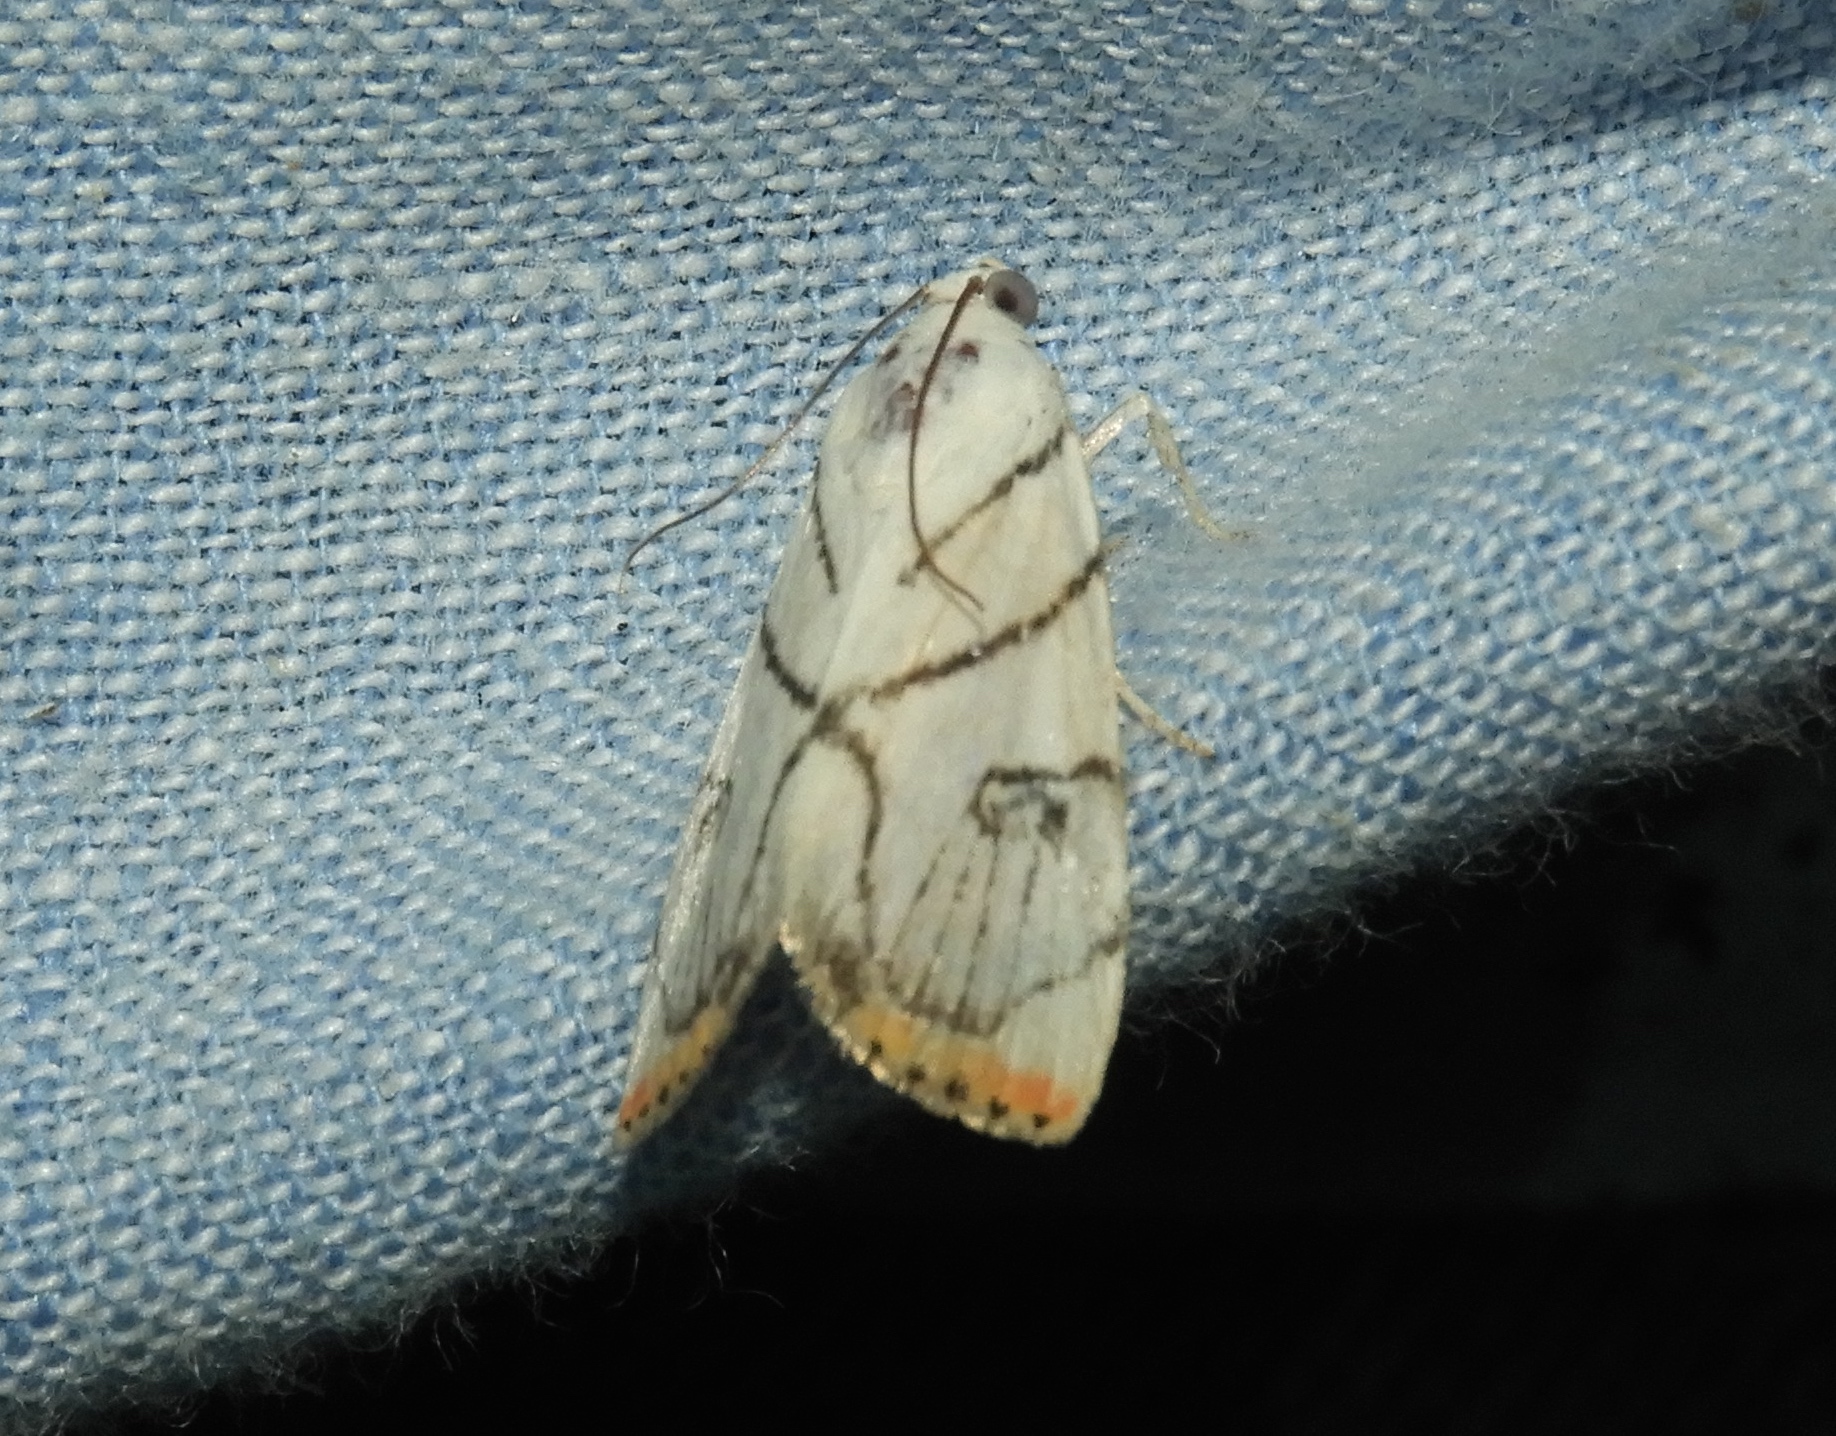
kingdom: Animalia
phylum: Arthropoda
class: Insecta
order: Lepidoptera
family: Crambidae
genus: Dichogama
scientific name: Dichogama gudmanni
